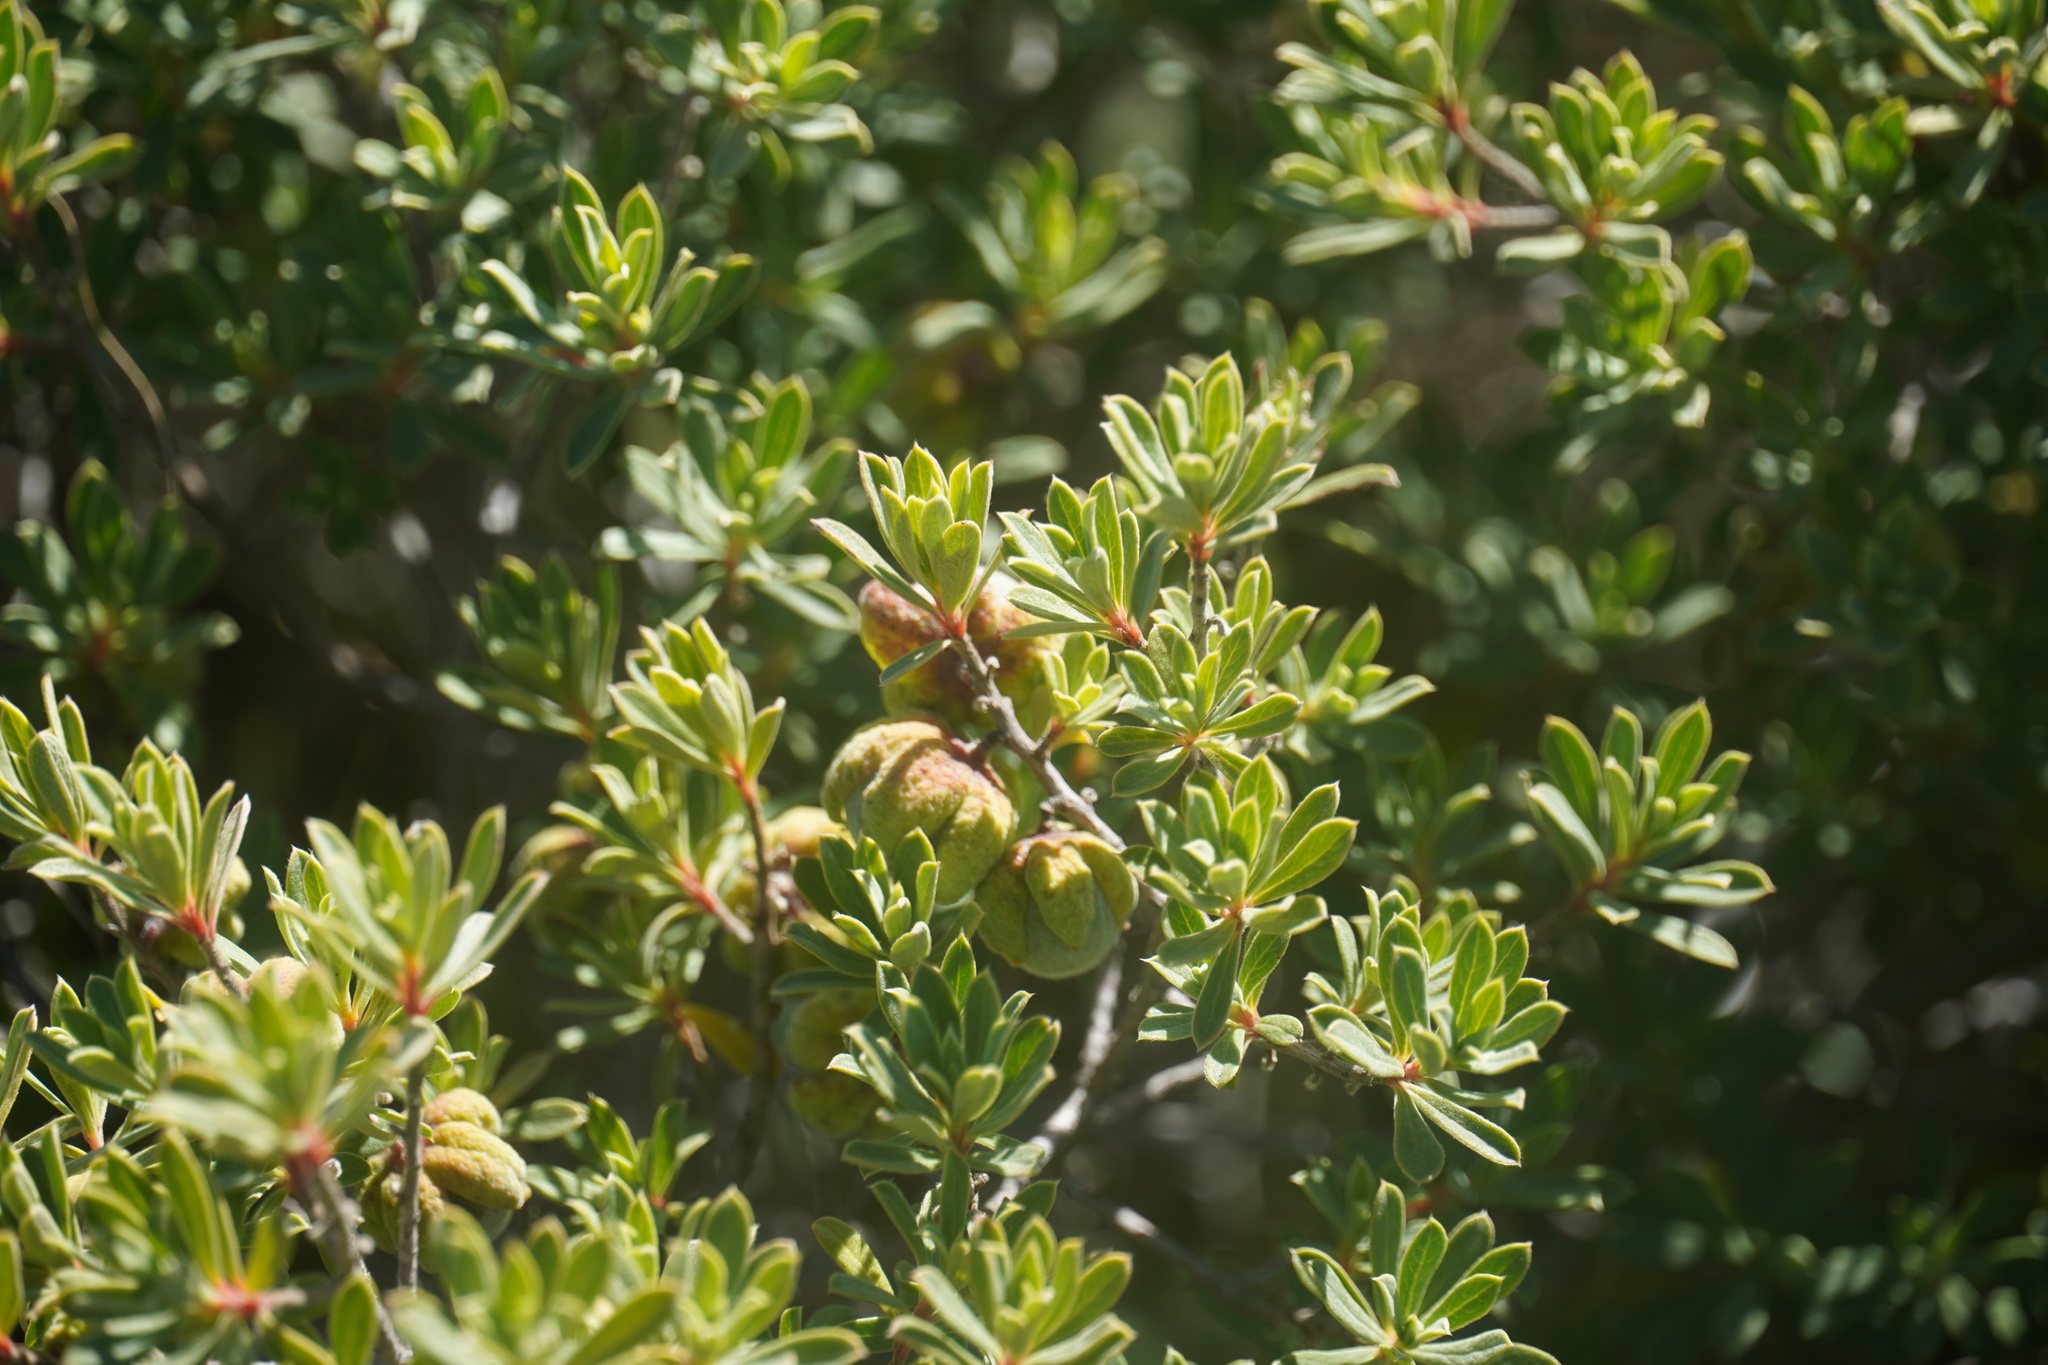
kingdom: Plantae
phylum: Tracheophyta
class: Magnoliopsida
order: Ericales
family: Ebenaceae
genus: Diospyros
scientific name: Diospyros pubescens
